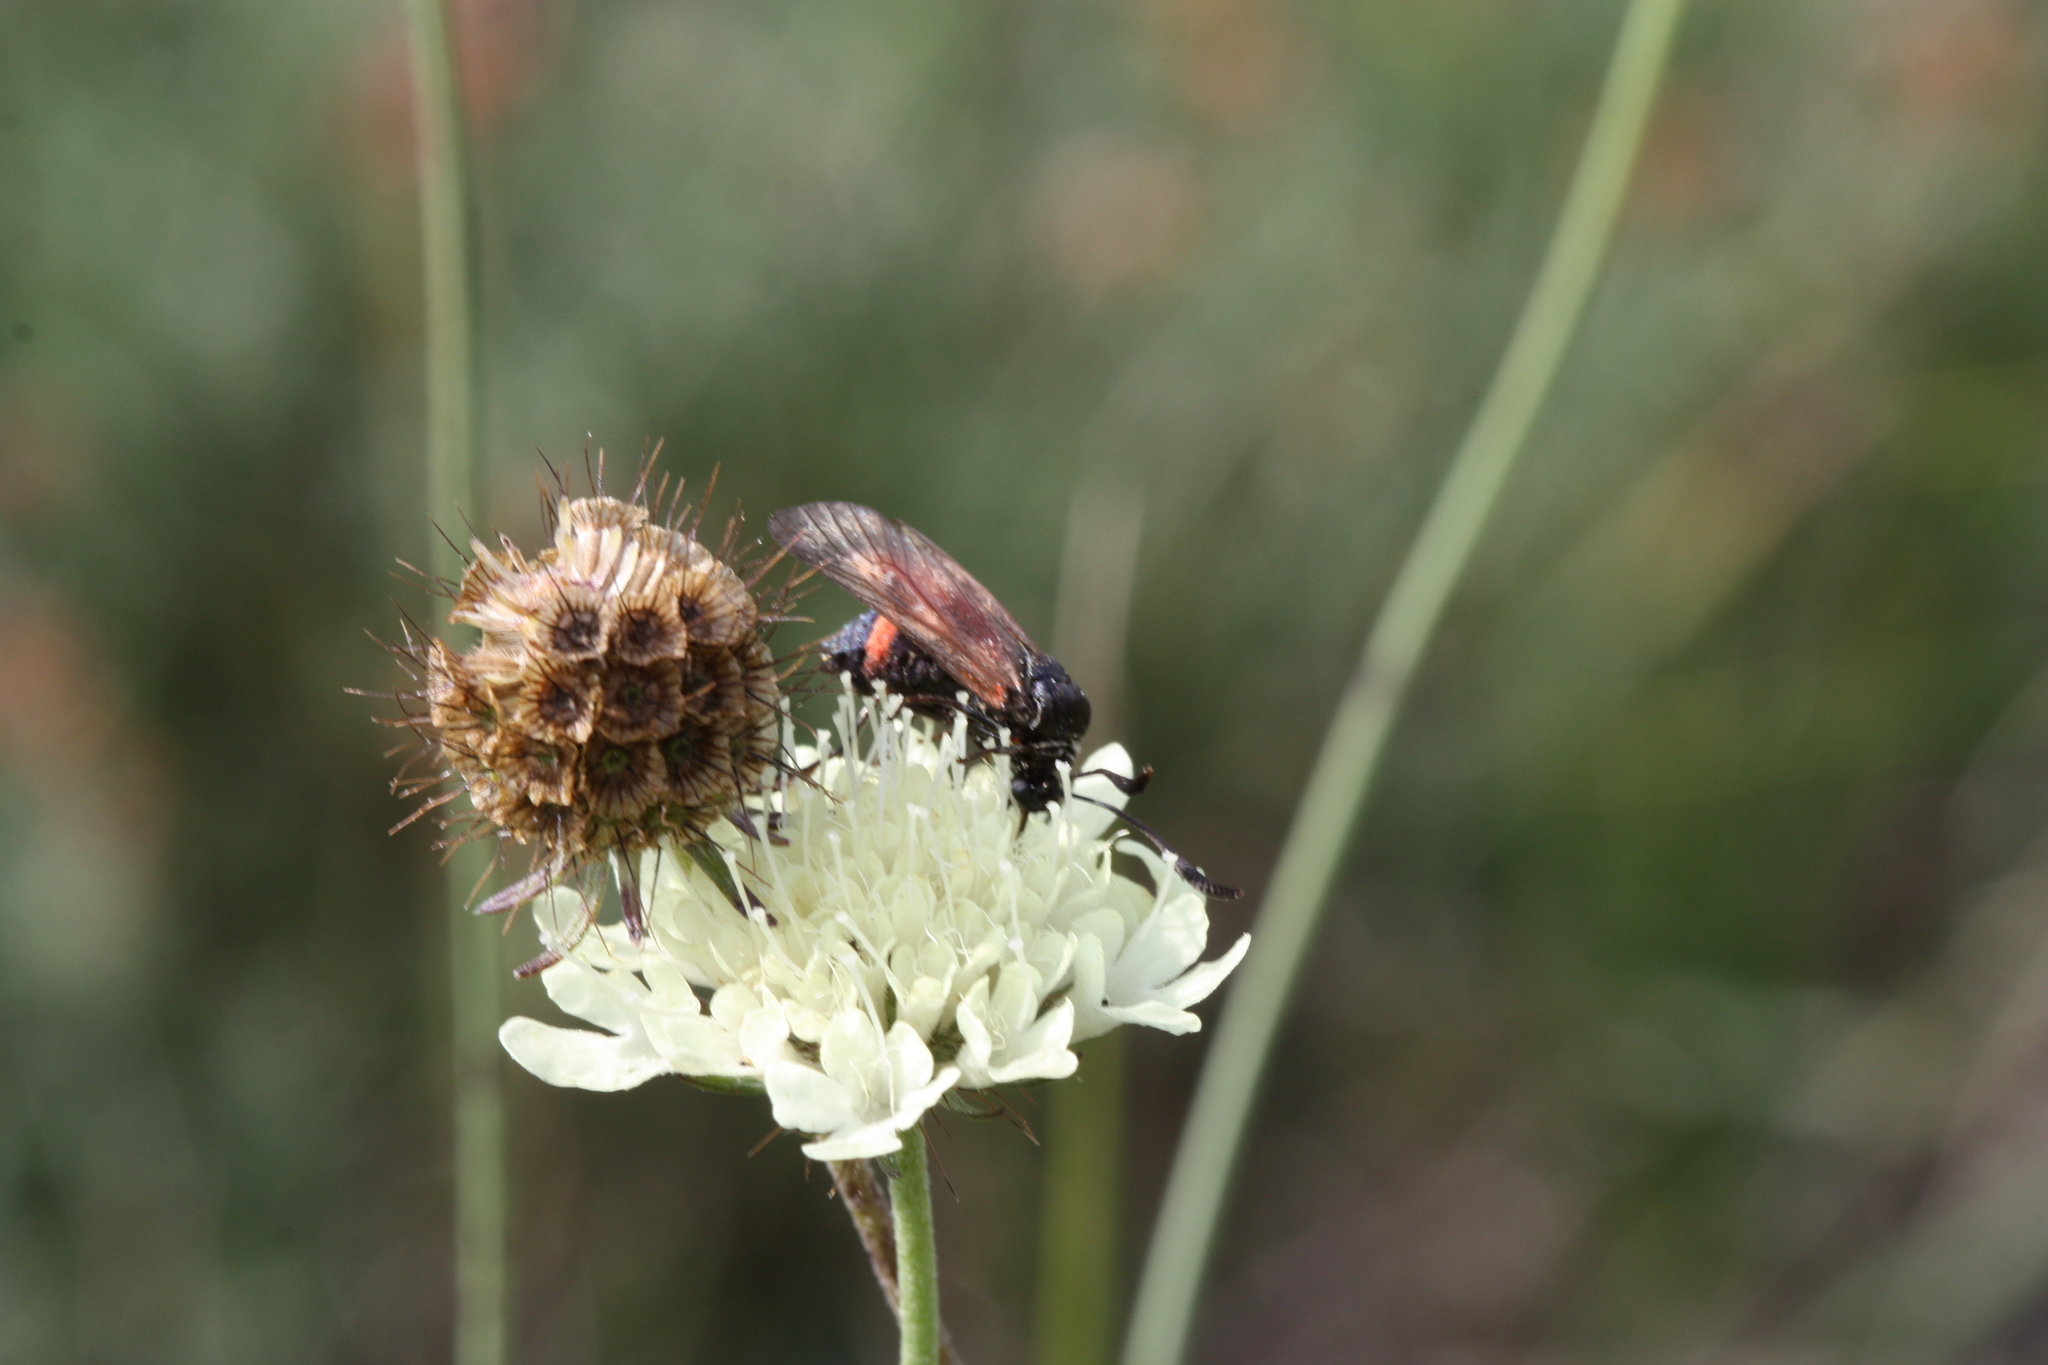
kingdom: Animalia
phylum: Arthropoda
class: Insecta
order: Lepidoptera
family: Zygaenidae
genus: Zygaena
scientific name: Zygaena carniolica
